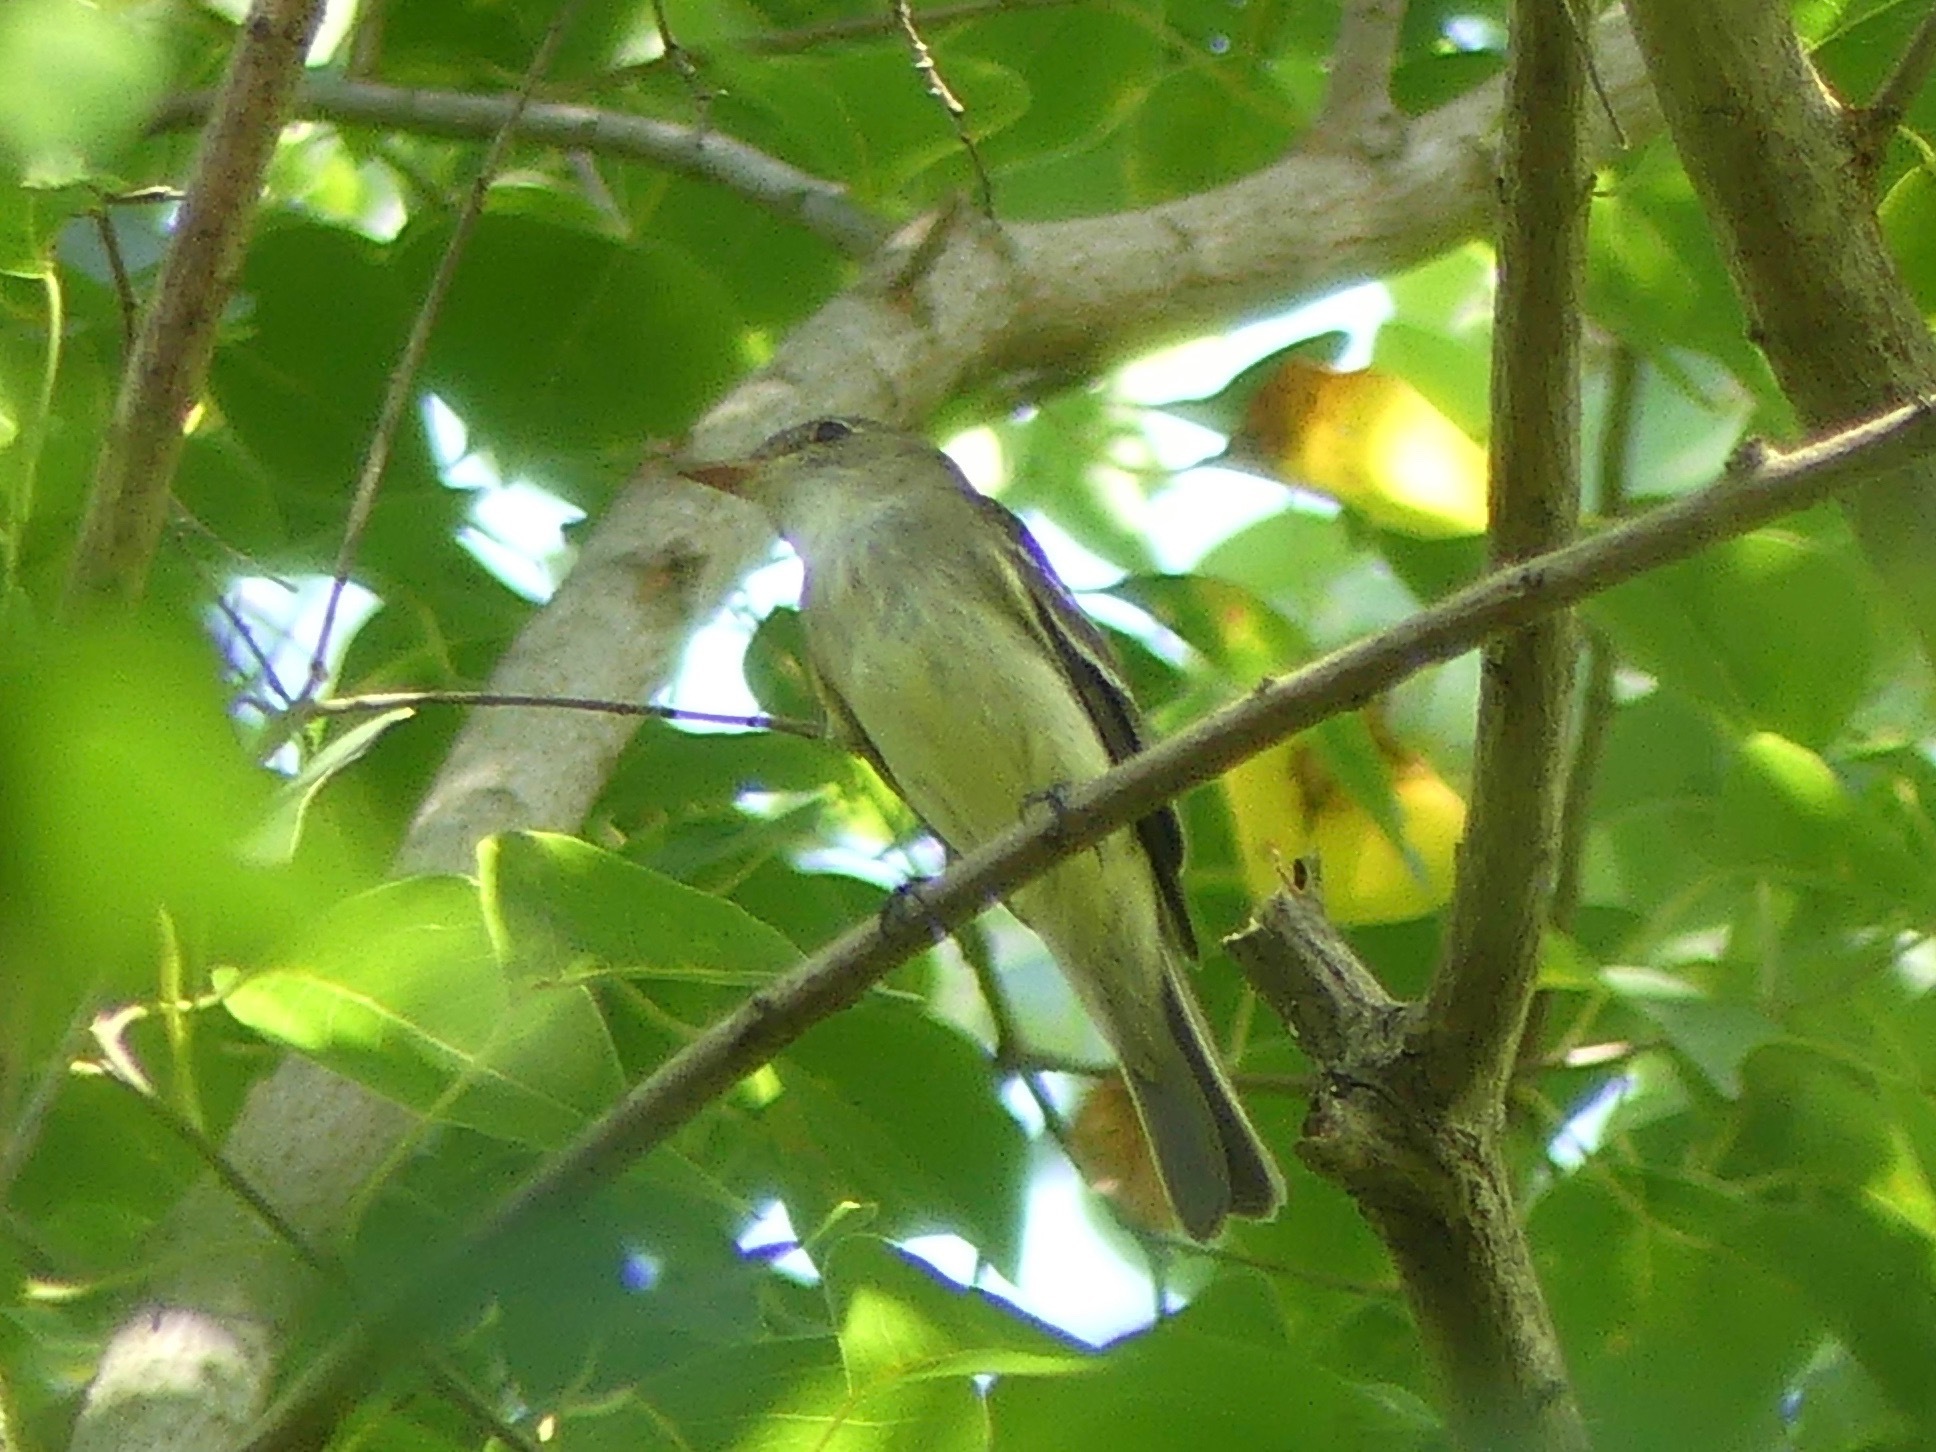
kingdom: Animalia
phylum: Chordata
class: Aves
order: Passeriformes
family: Tyrannidae
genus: Empidonax
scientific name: Empidonax alnorum
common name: Alder flycatcher
